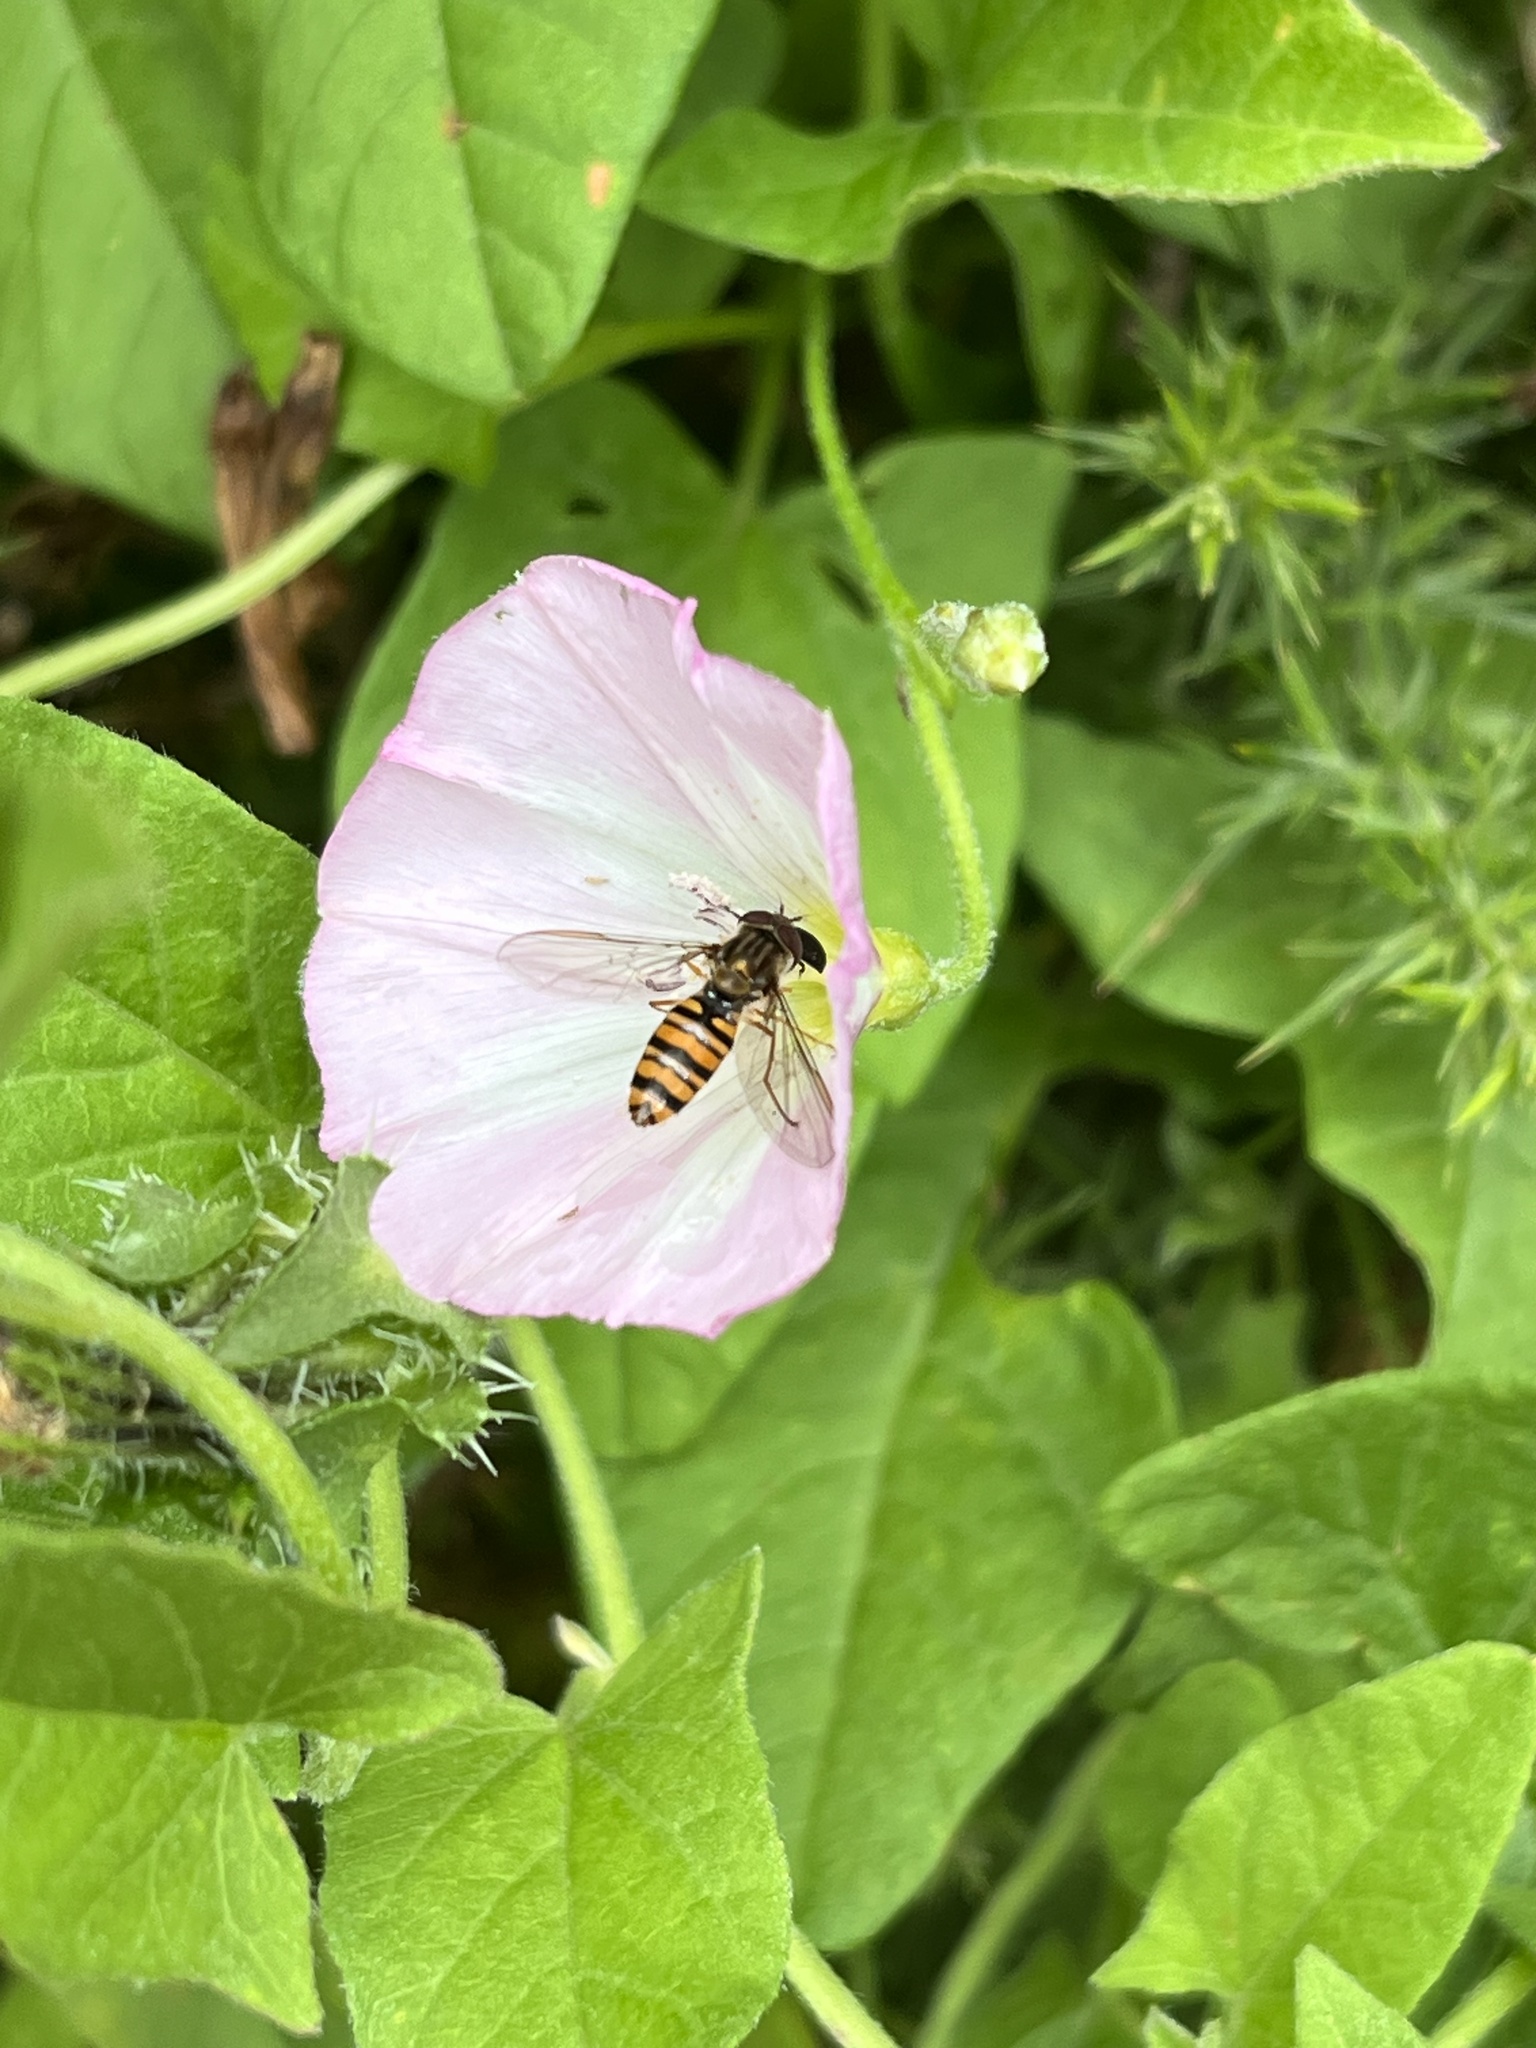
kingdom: Animalia
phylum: Arthropoda
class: Insecta
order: Diptera
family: Syrphidae
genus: Episyrphus
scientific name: Episyrphus balteatus
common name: Marmalade hoverfly
